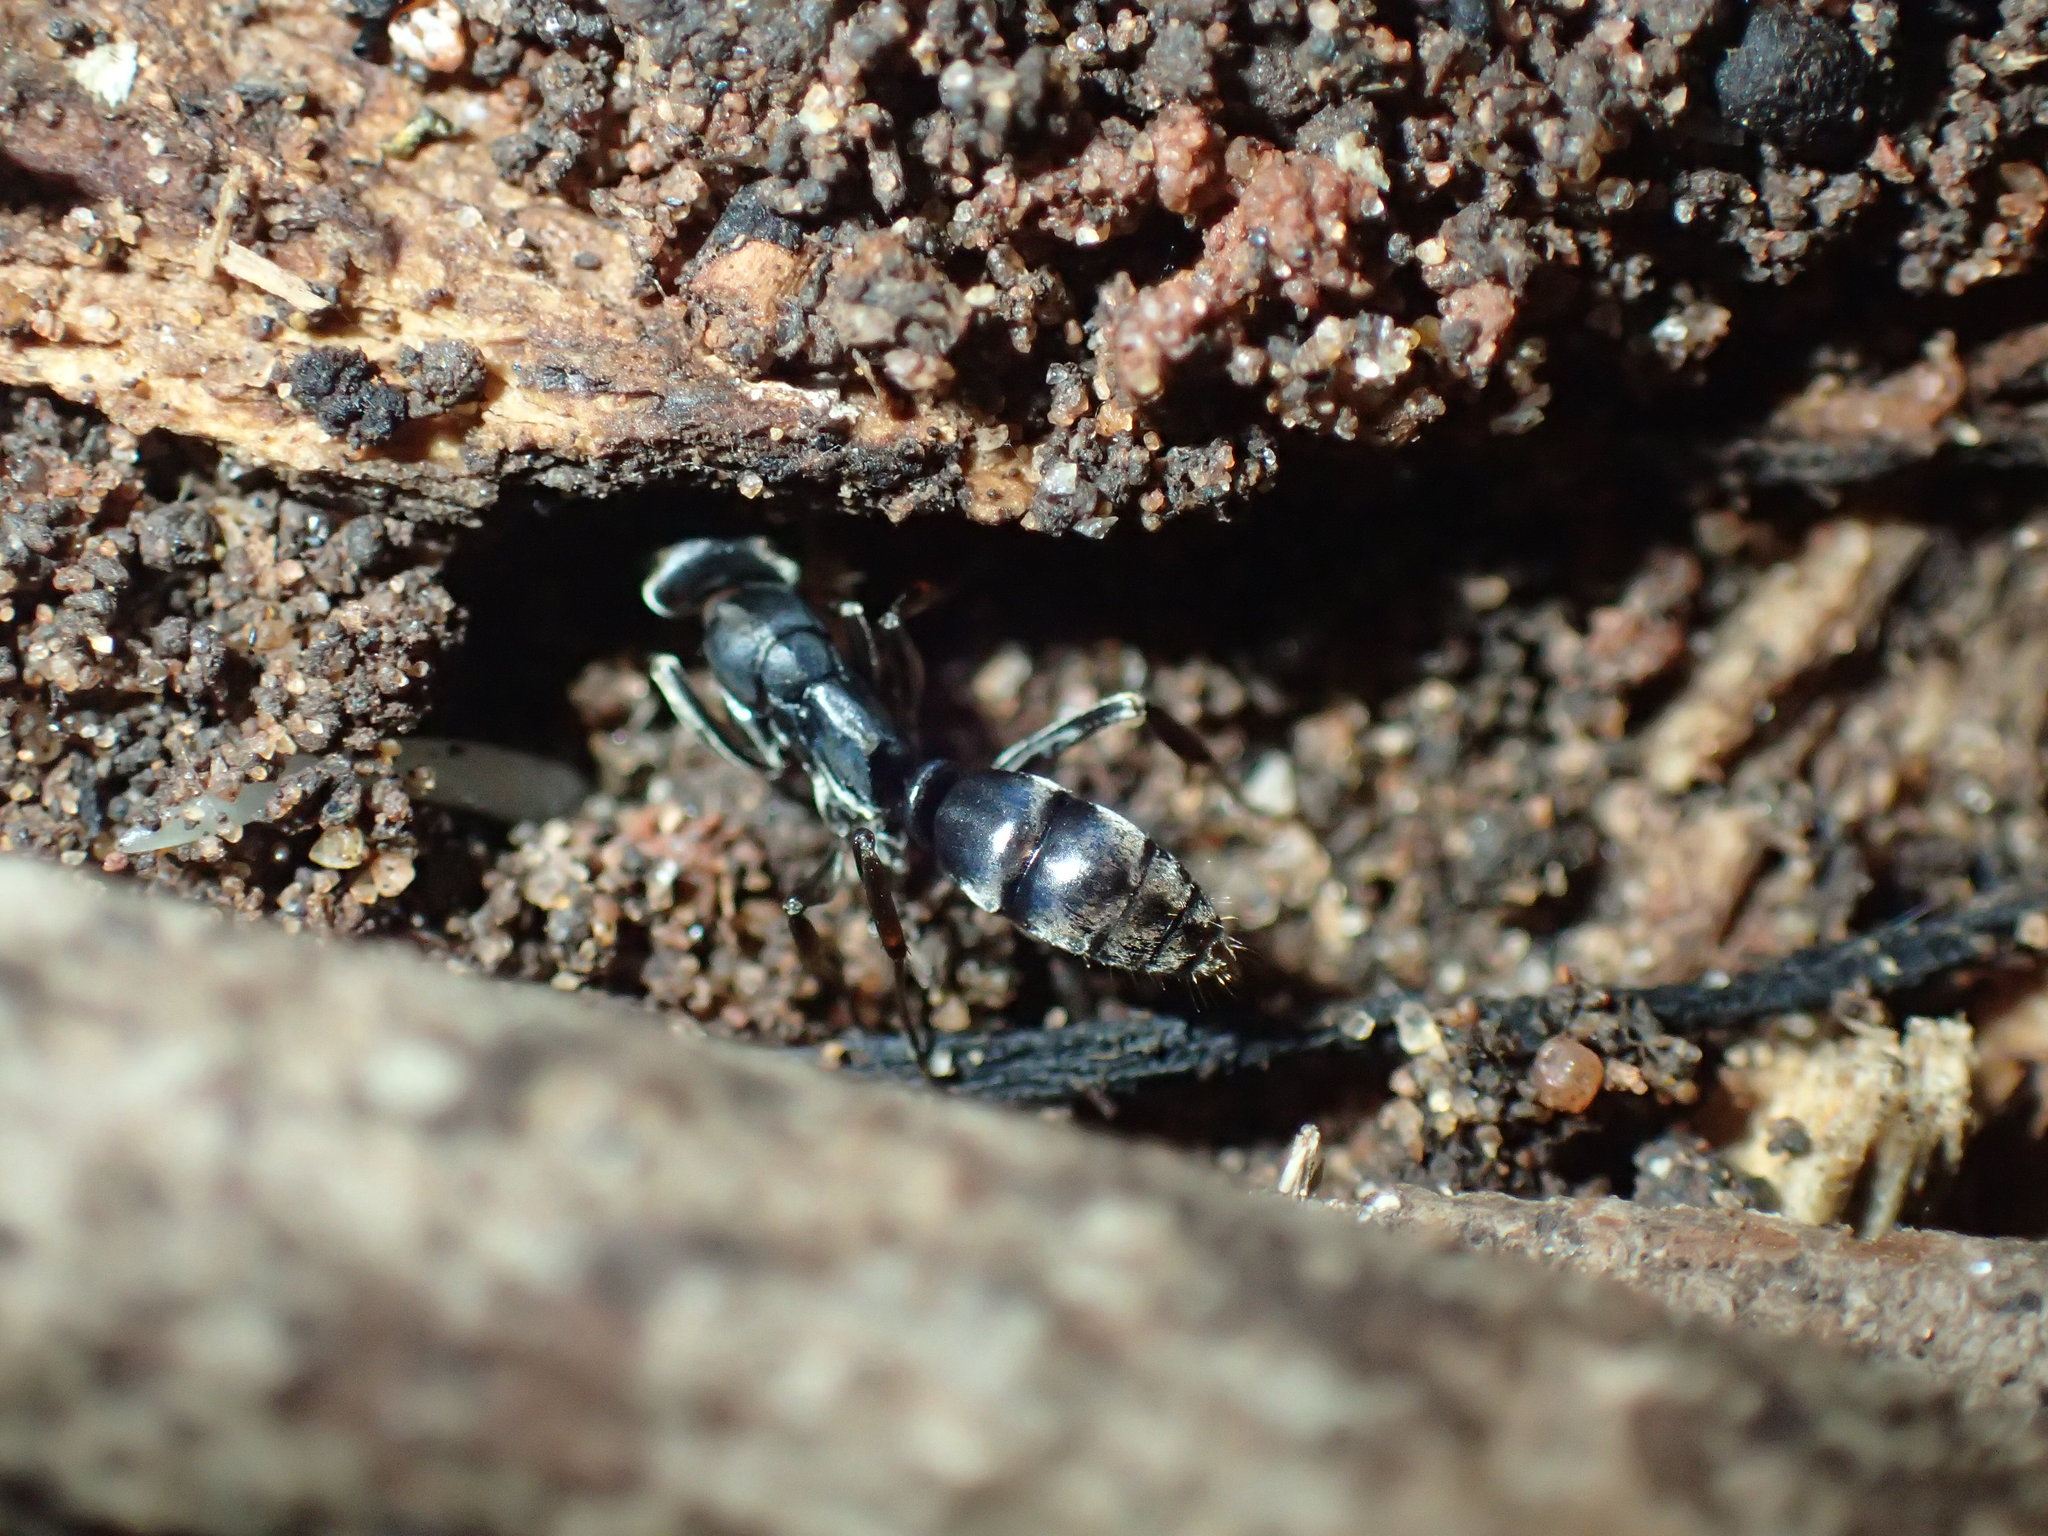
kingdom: Animalia
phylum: Arthropoda
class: Insecta
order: Hymenoptera
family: Formicidae
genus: Mesoponera
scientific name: Mesoponera caffraria
